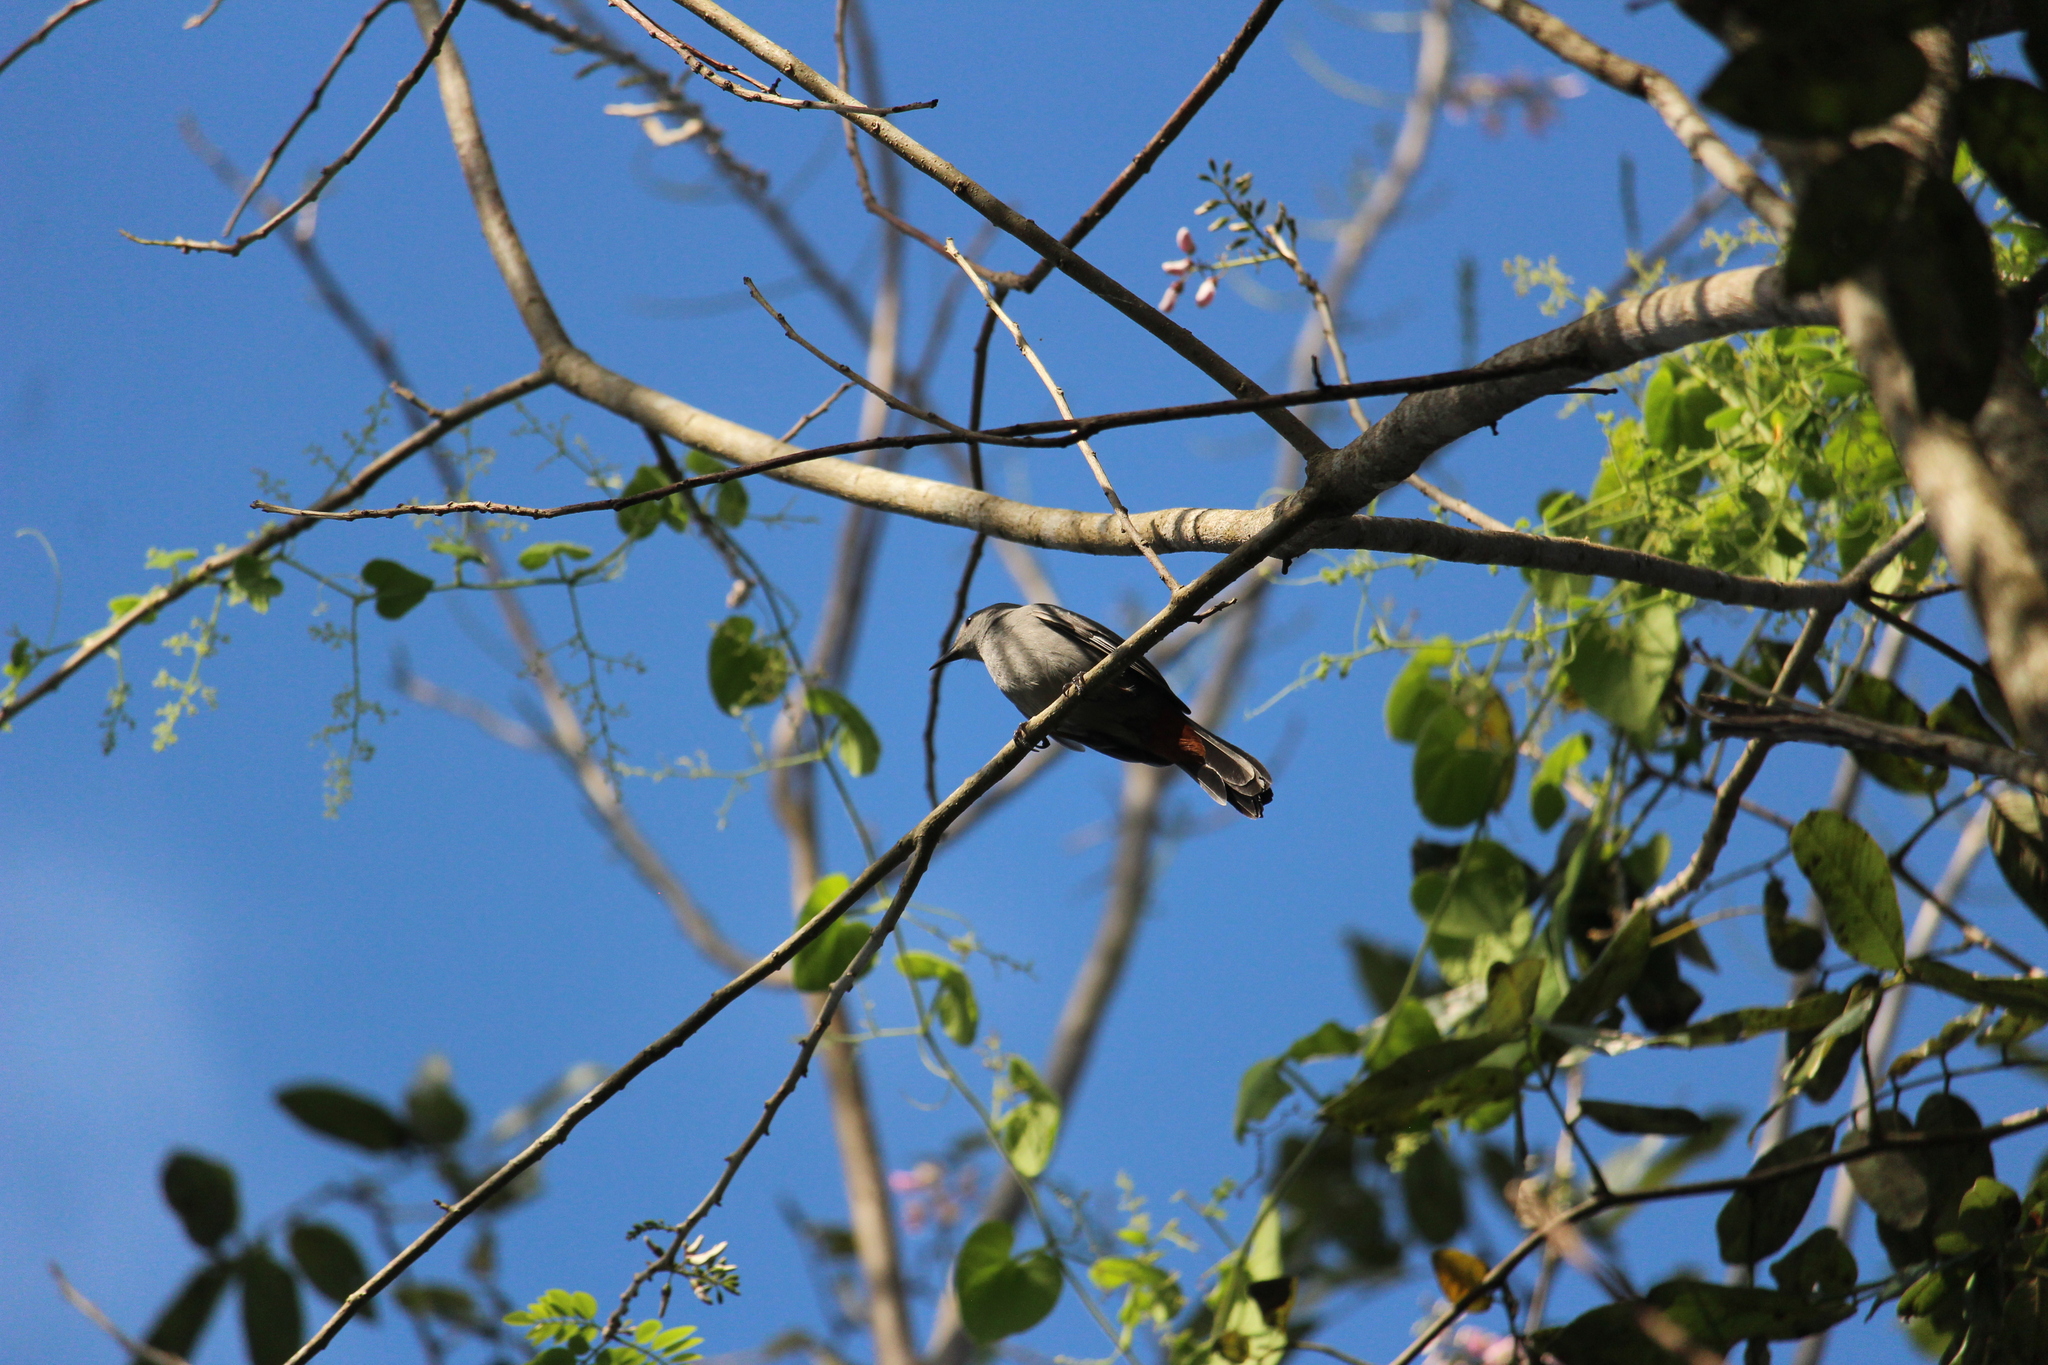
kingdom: Animalia
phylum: Chordata
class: Aves
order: Passeriformes
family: Mimidae
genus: Dumetella
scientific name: Dumetella carolinensis
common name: Gray catbird
